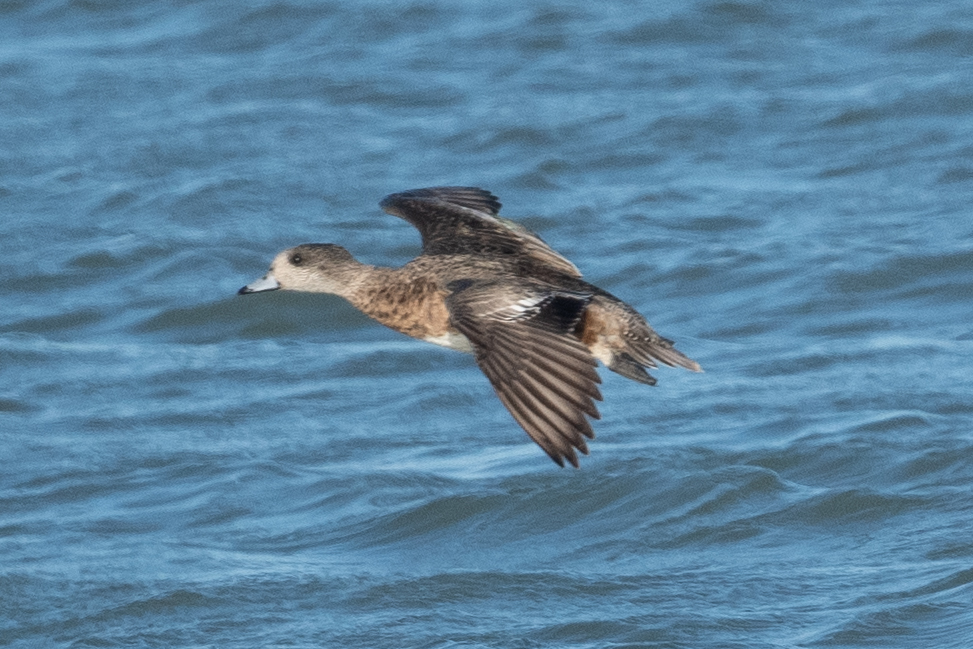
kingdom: Animalia
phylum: Chordata
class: Aves
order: Anseriformes
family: Anatidae
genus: Mareca
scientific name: Mareca americana
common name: American wigeon
